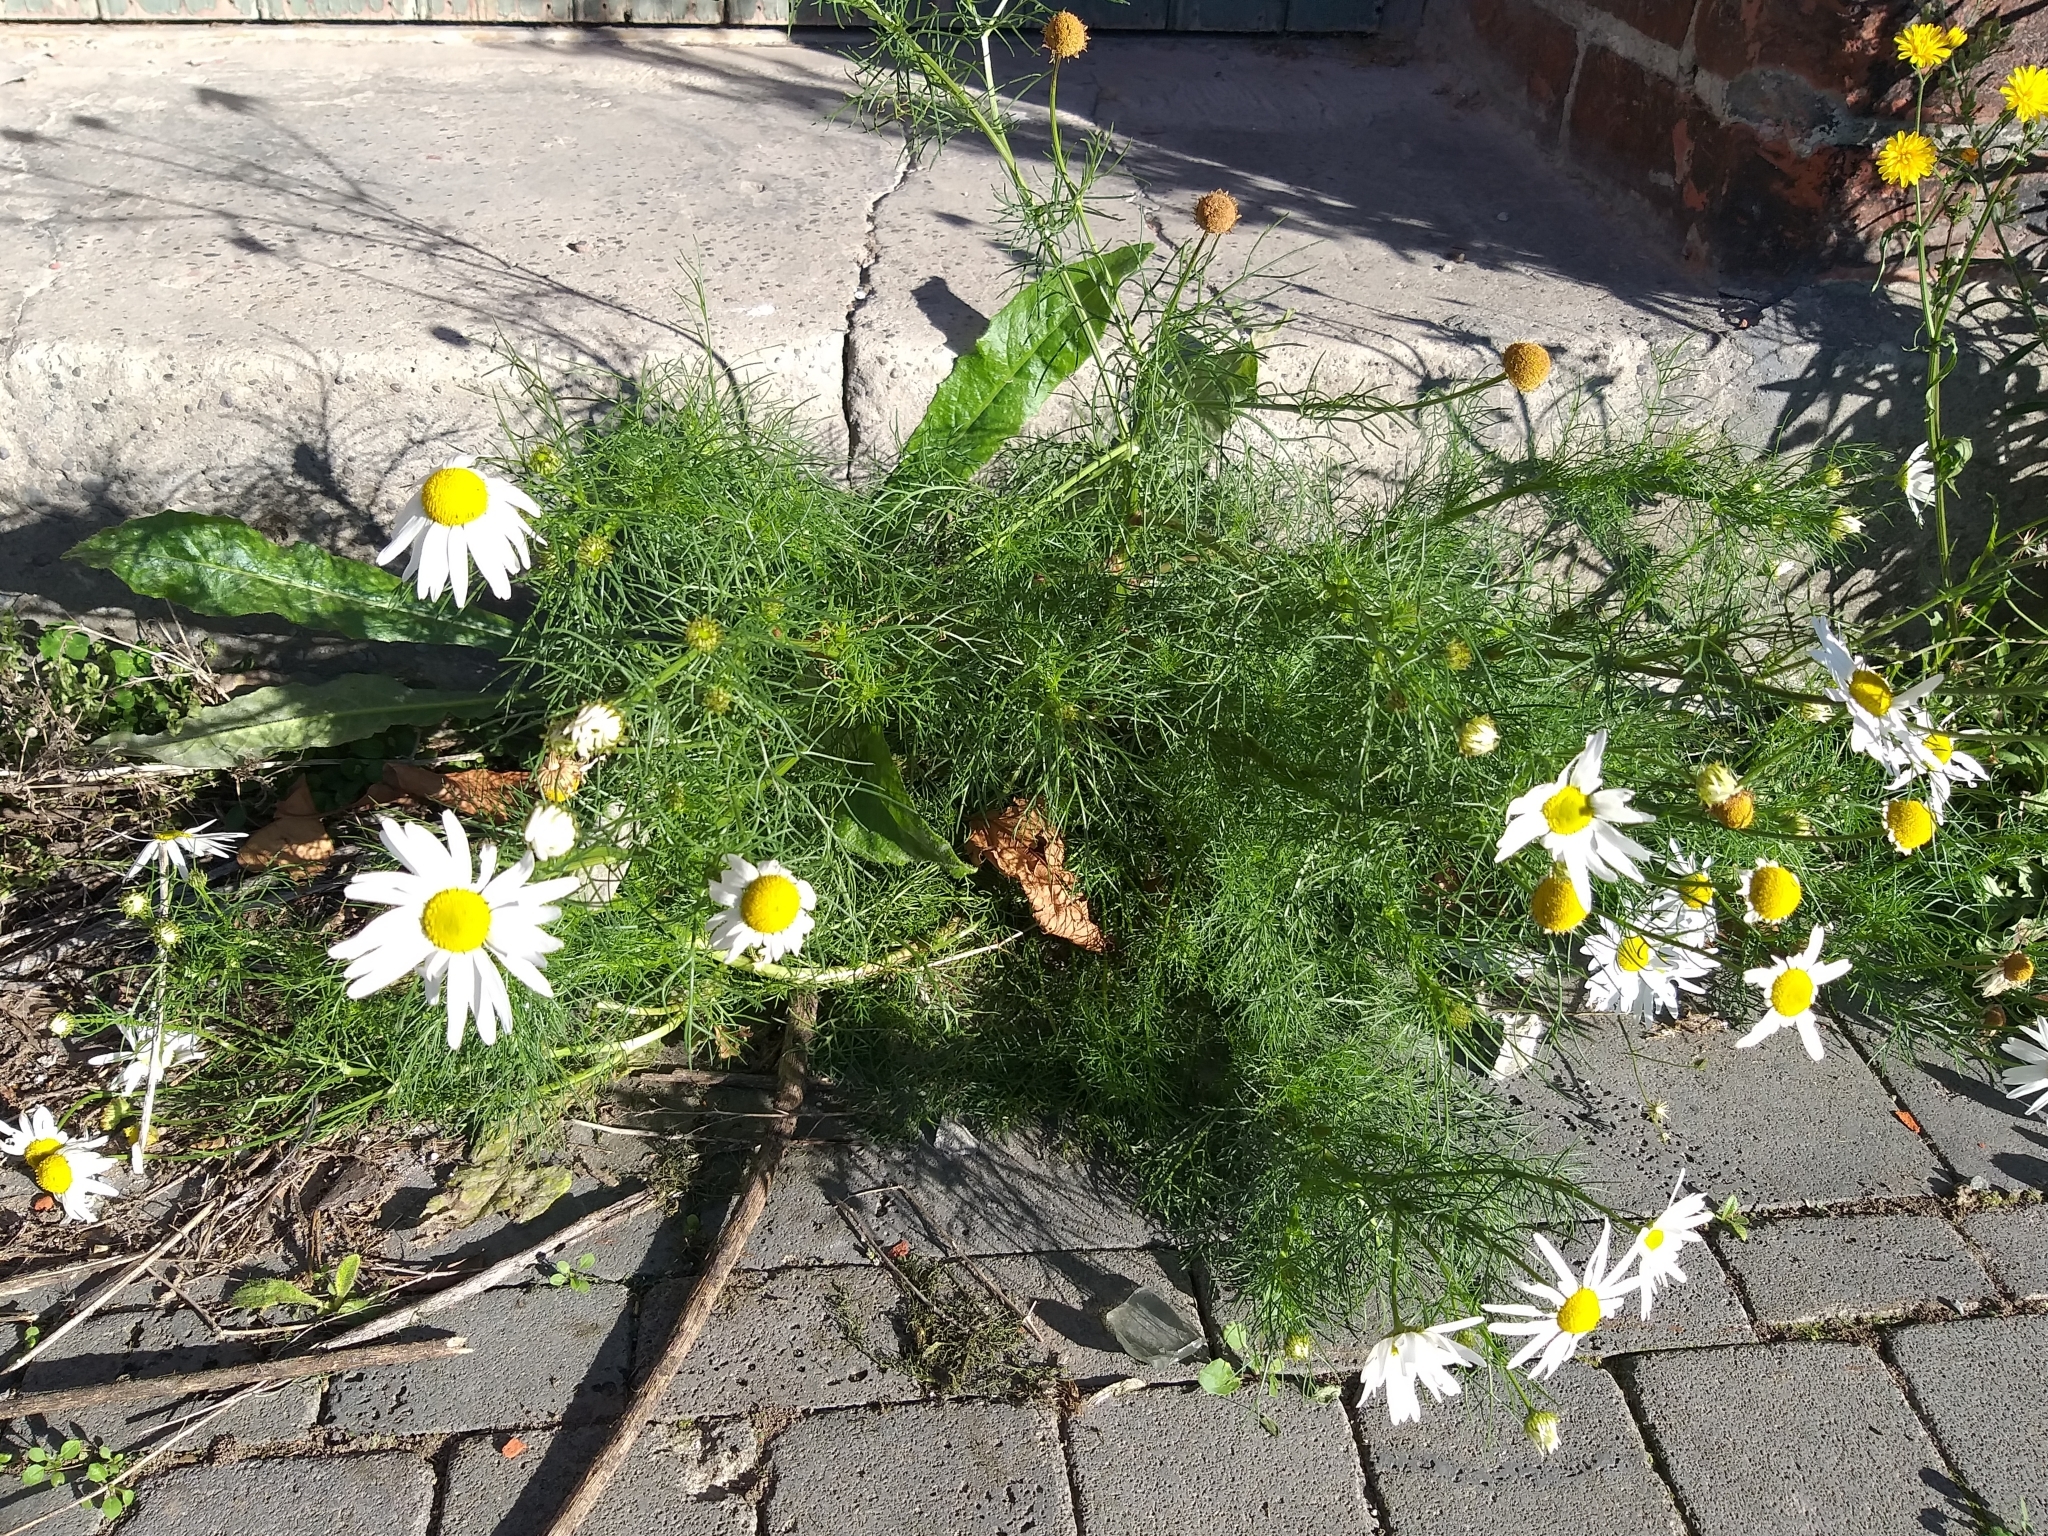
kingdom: Plantae
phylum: Tracheophyta
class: Magnoliopsida
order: Asterales
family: Asteraceae
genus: Tripleurospermum
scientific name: Tripleurospermum inodorum
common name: Scentless mayweed
